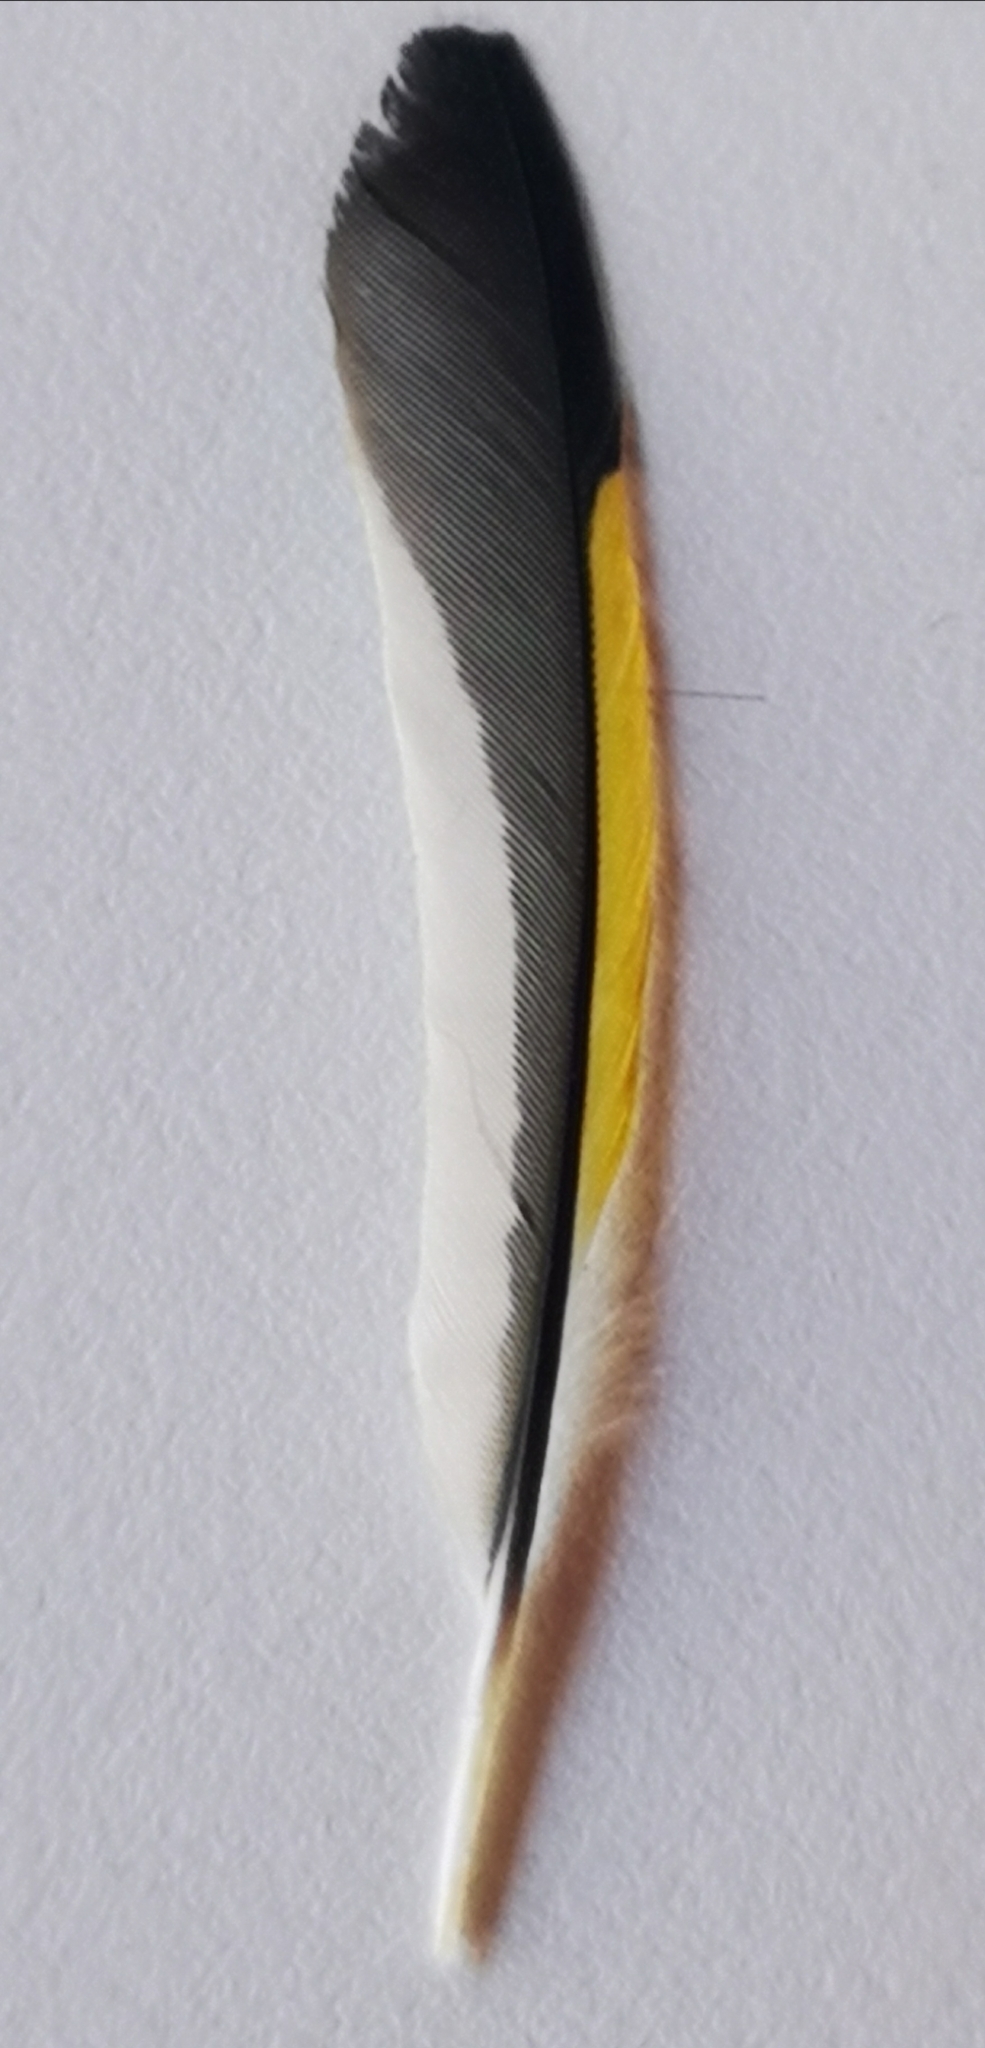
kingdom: Animalia
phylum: Chordata
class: Aves
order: Passeriformes
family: Fringillidae
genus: Carduelis
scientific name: Carduelis carduelis
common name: European goldfinch
